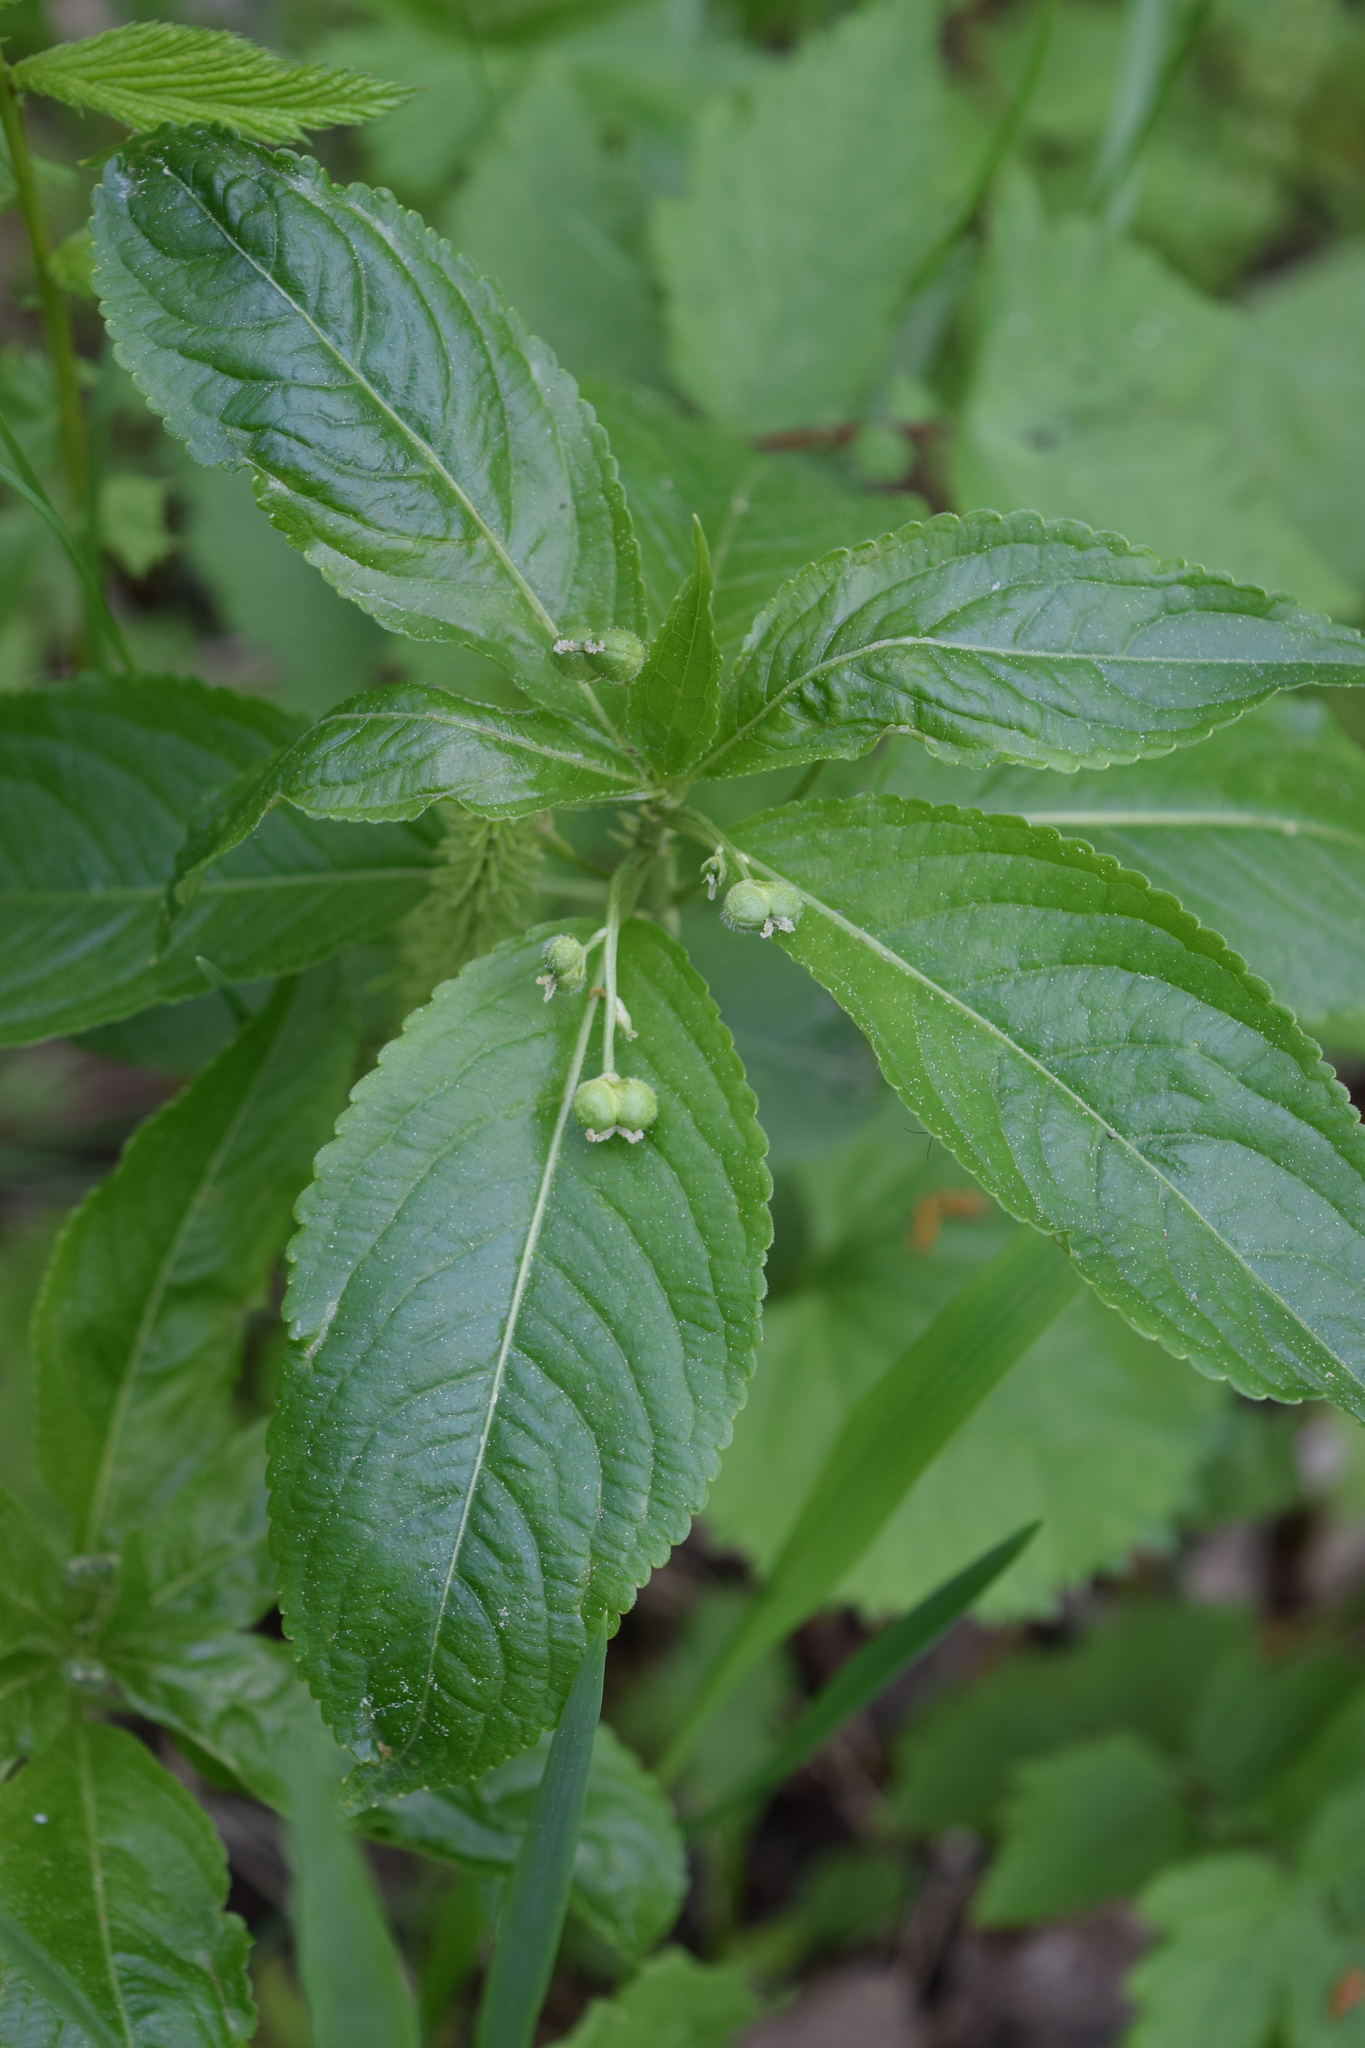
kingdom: Plantae
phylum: Tracheophyta
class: Magnoliopsida
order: Malpighiales
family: Euphorbiaceae
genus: Mercurialis
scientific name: Mercurialis perennis
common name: Dog mercury
